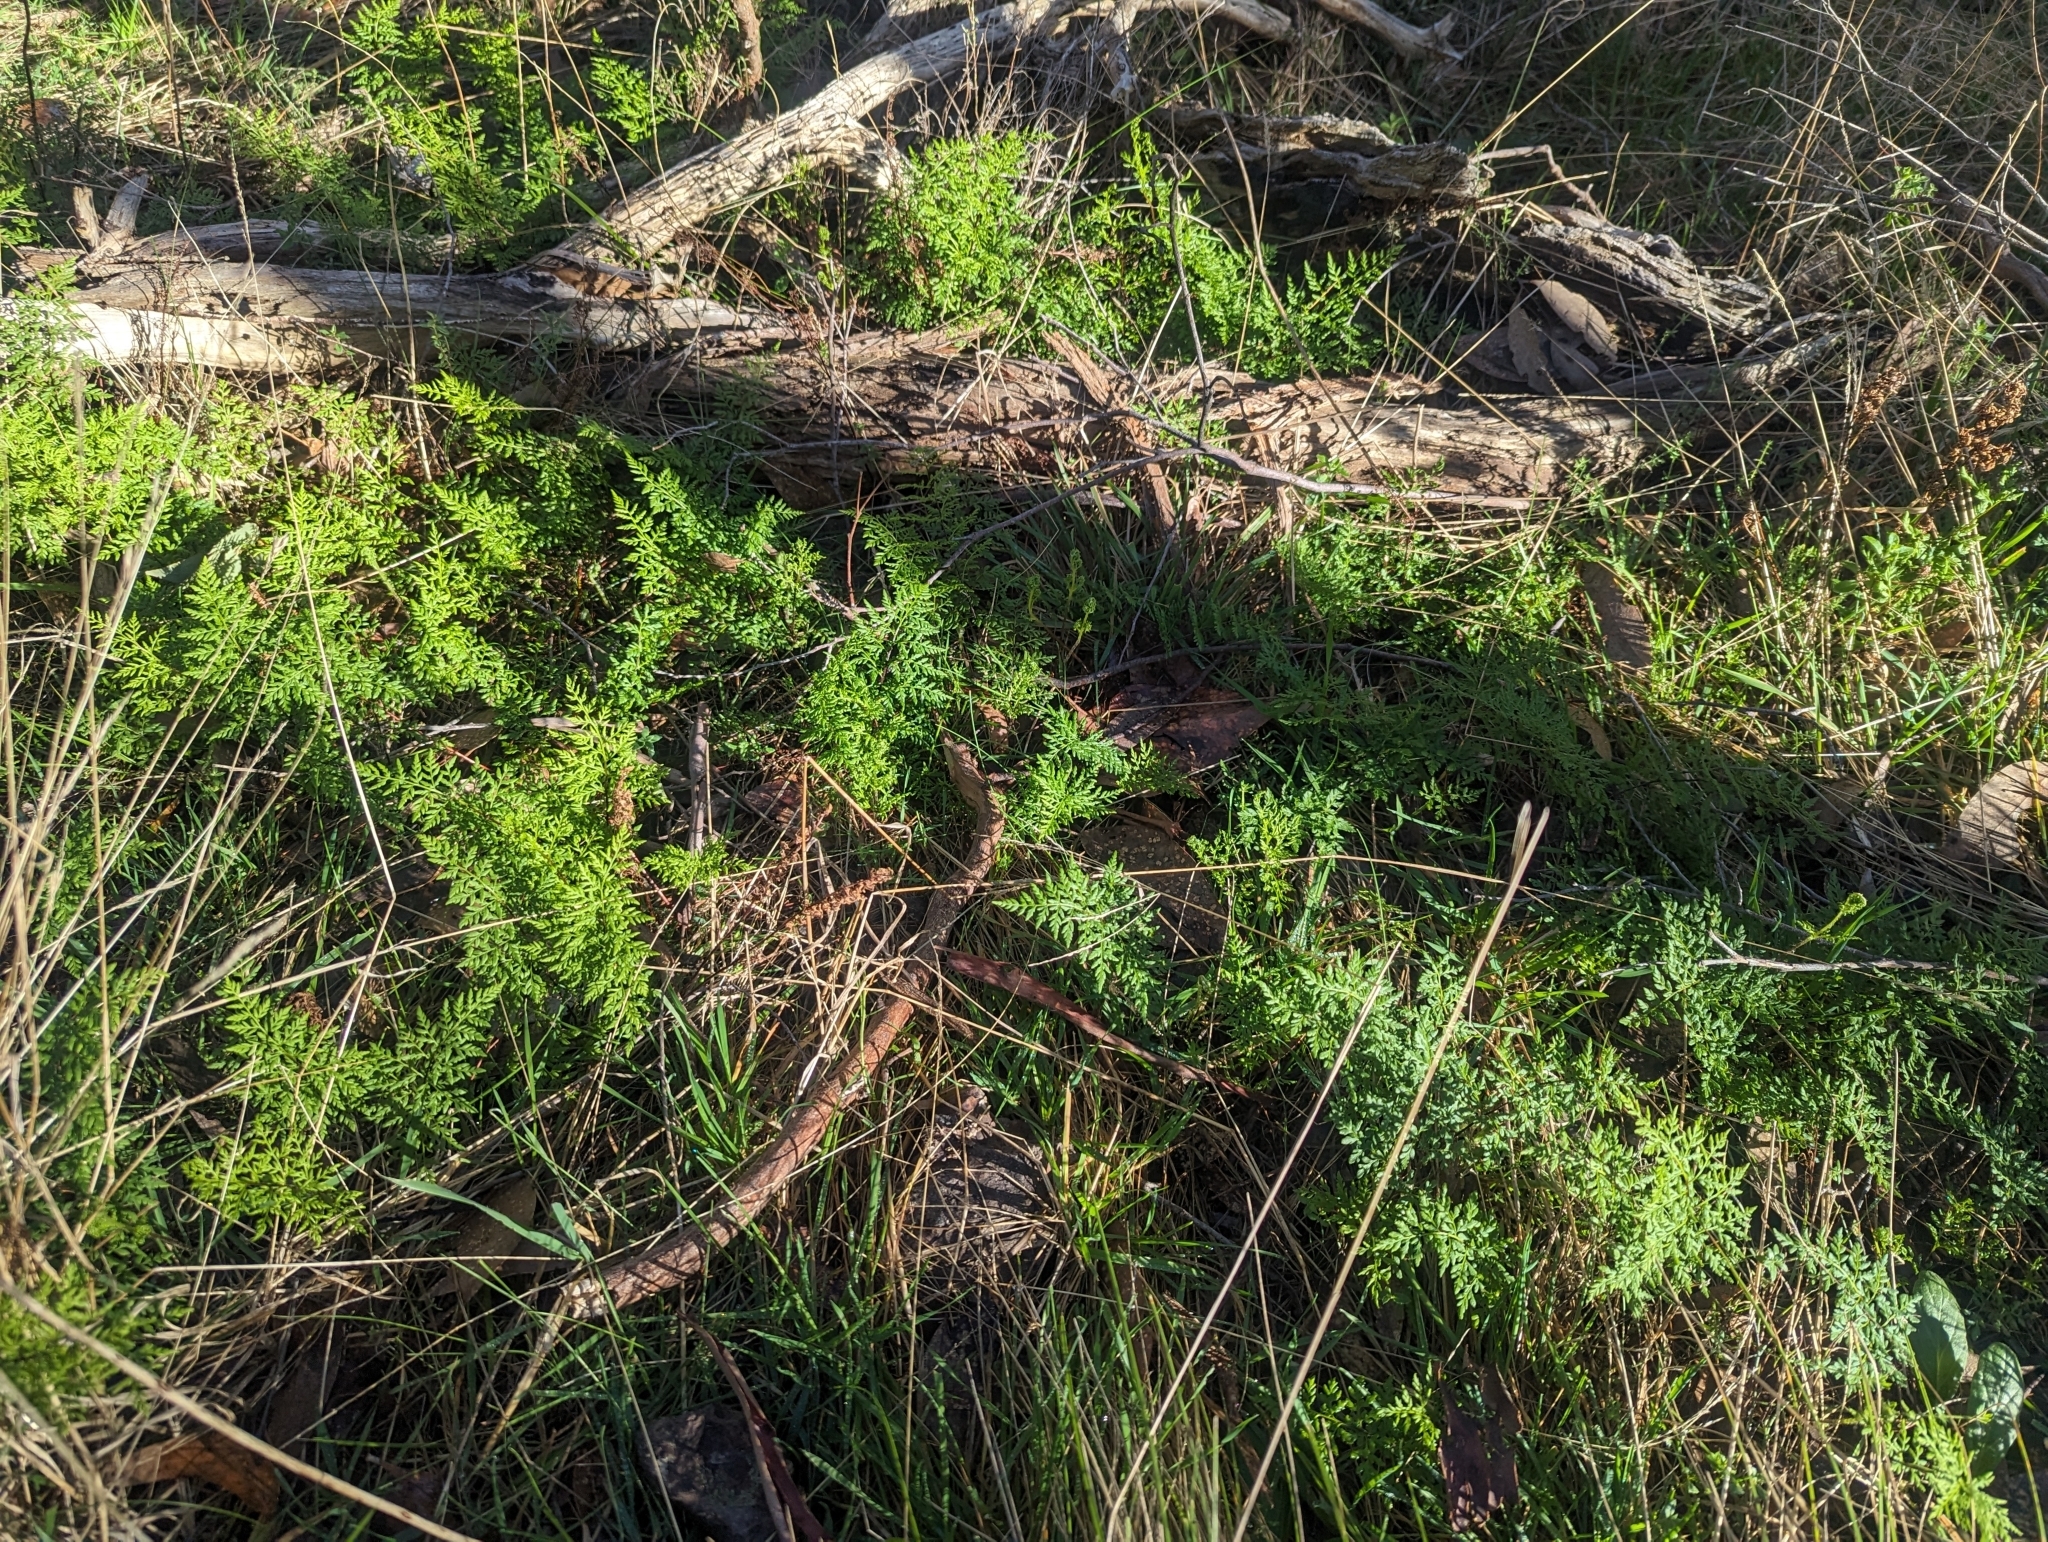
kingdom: Plantae
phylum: Tracheophyta
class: Polypodiopsida
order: Polypodiales
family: Pteridaceae
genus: Cheilanthes
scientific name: Cheilanthes austrotenuifolia
